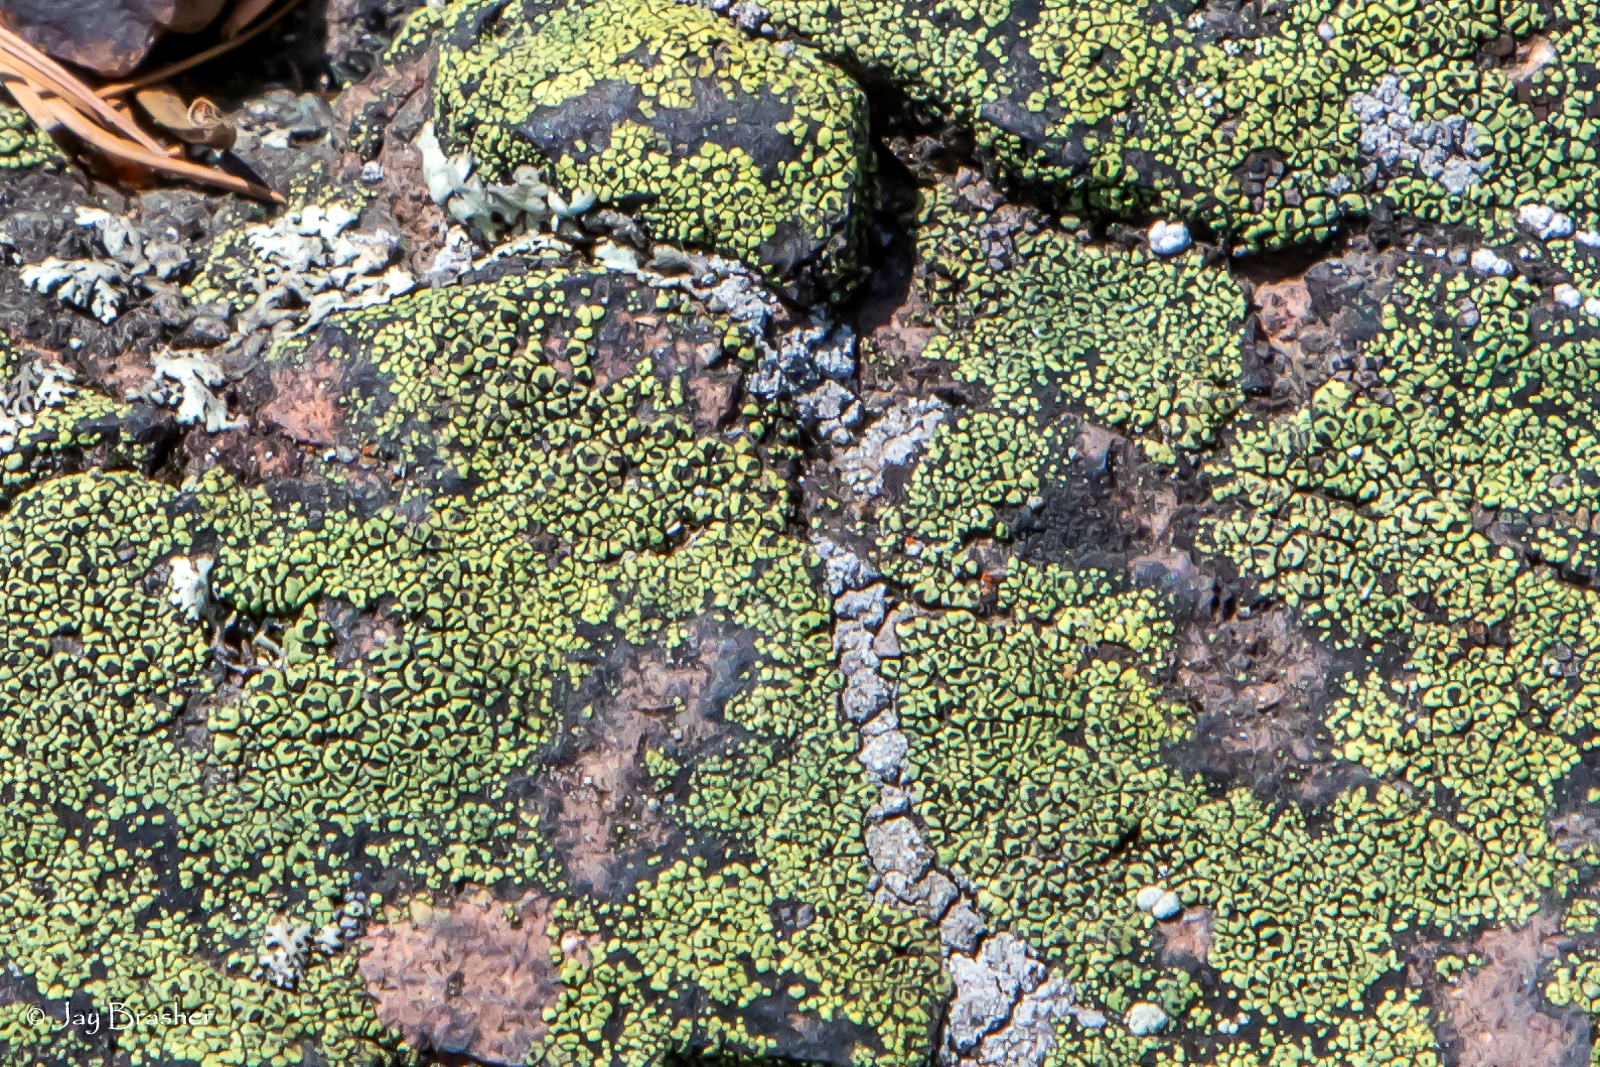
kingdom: Fungi
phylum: Ascomycota
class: Lecanoromycetes
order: Rhizocarpales
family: Rhizocarpaceae
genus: Rhizocarpon
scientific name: Rhizocarpon lecanorinum
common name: Crescent map lichen
